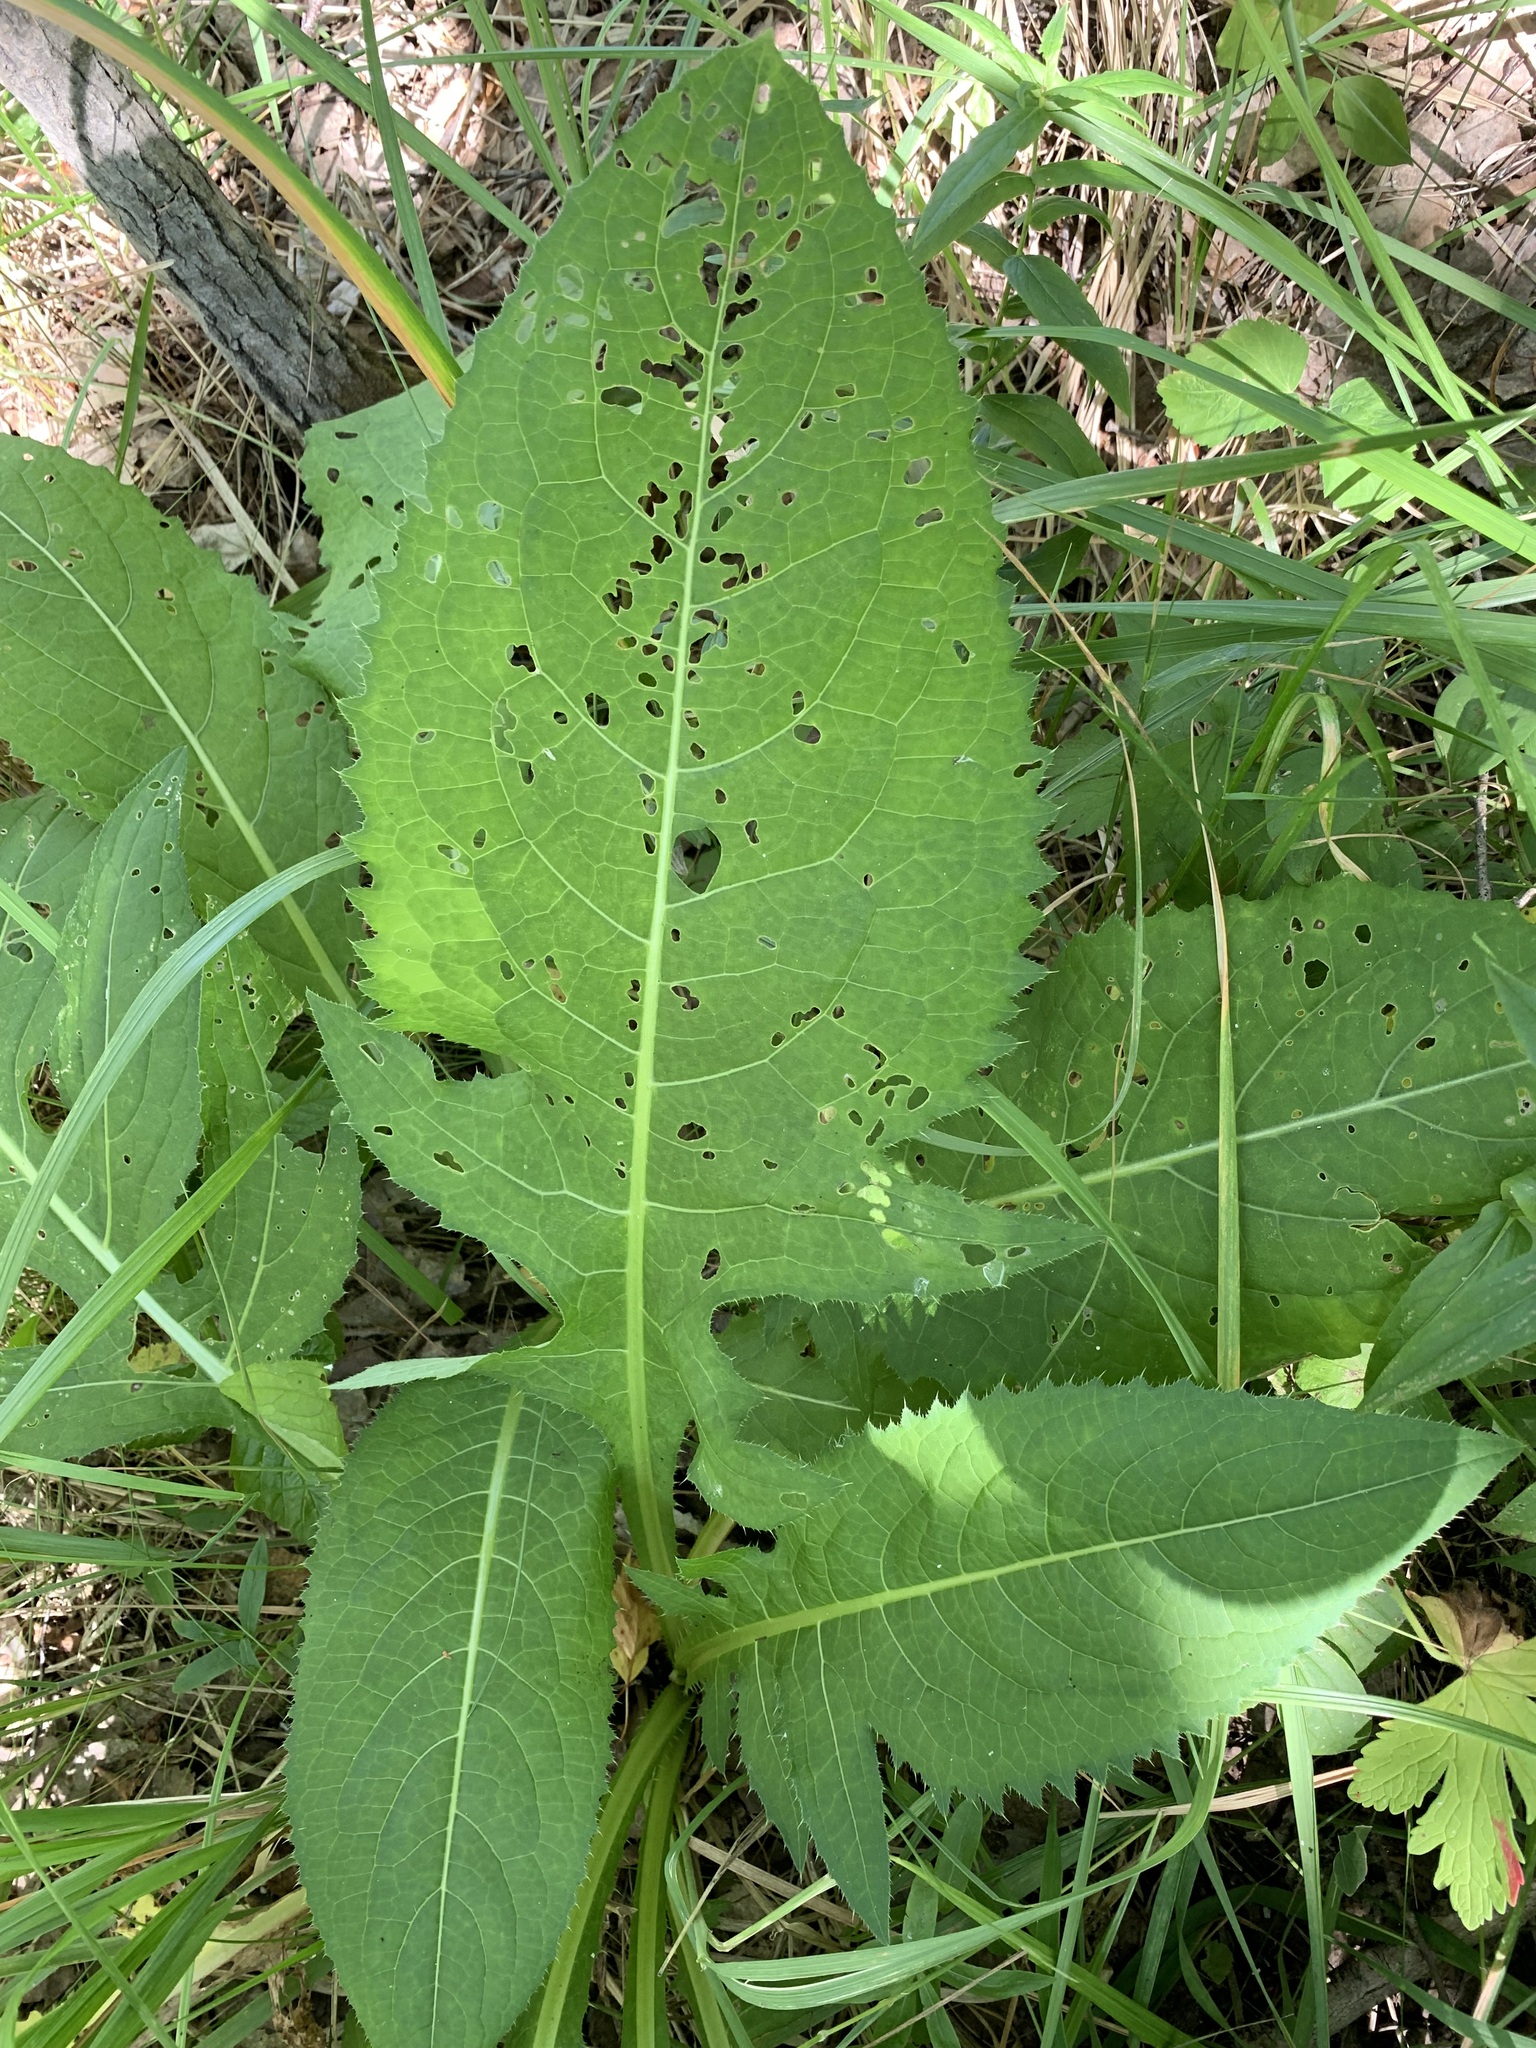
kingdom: Plantae
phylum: Tracheophyta
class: Magnoliopsida
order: Asterales
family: Asteraceae
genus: Cirsium
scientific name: Cirsium oleraceum
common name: Cabbage thistle
